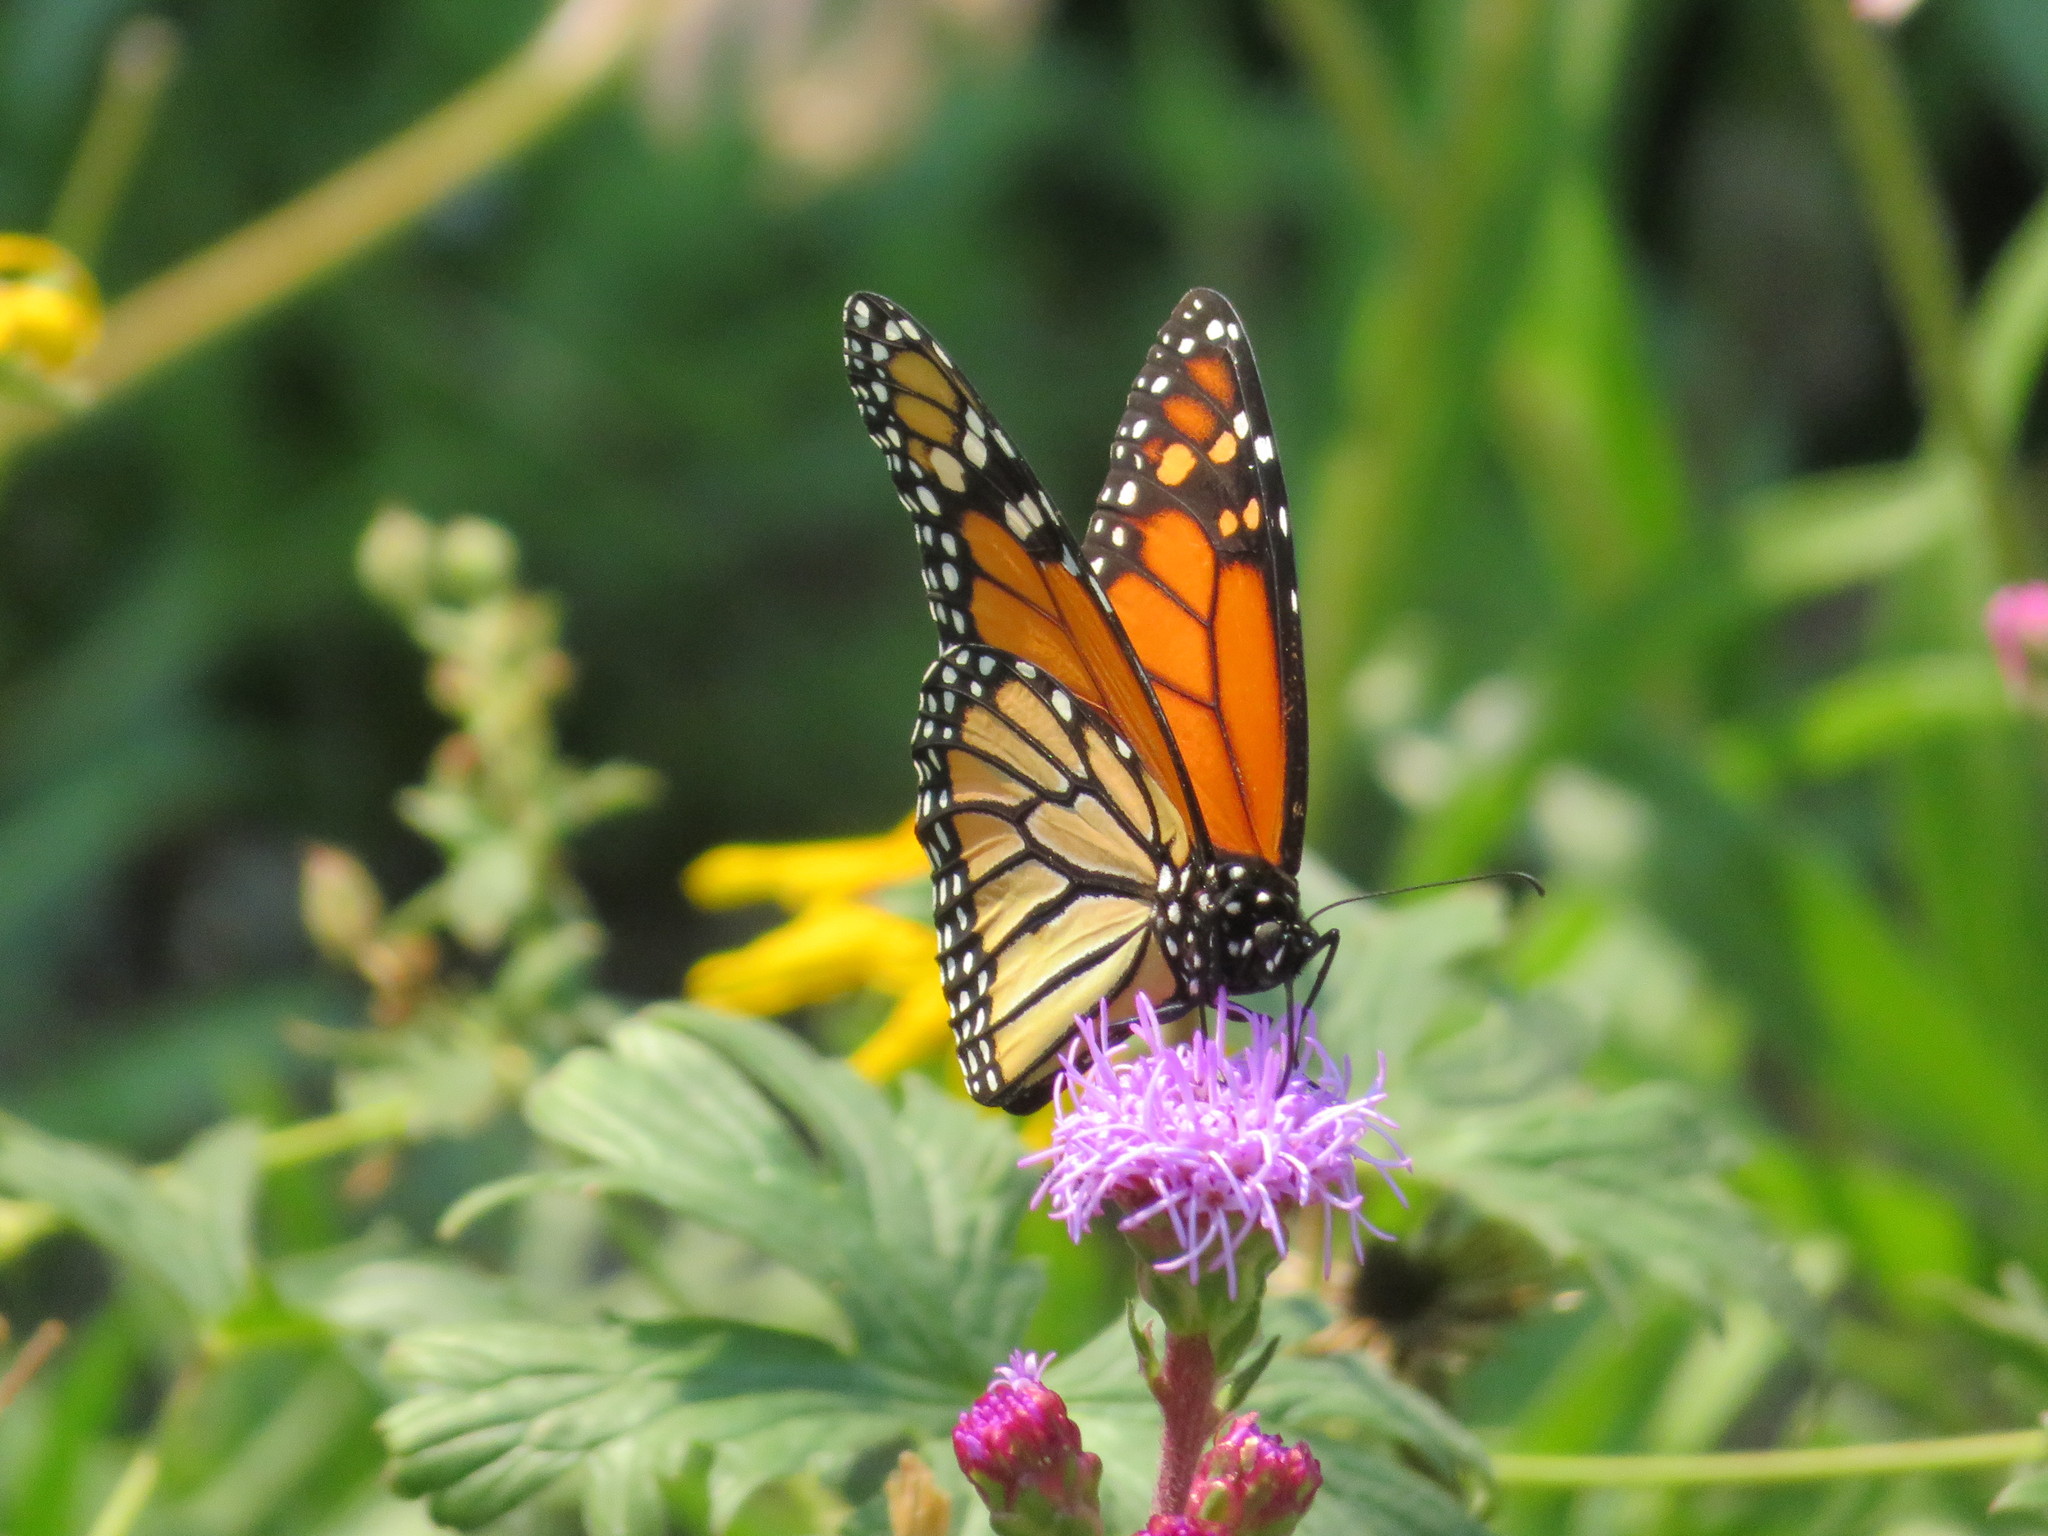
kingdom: Animalia
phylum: Arthropoda
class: Insecta
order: Lepidoptera
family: Nymphalidae
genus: Danaus
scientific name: Danaus plexippus
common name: Monarch
